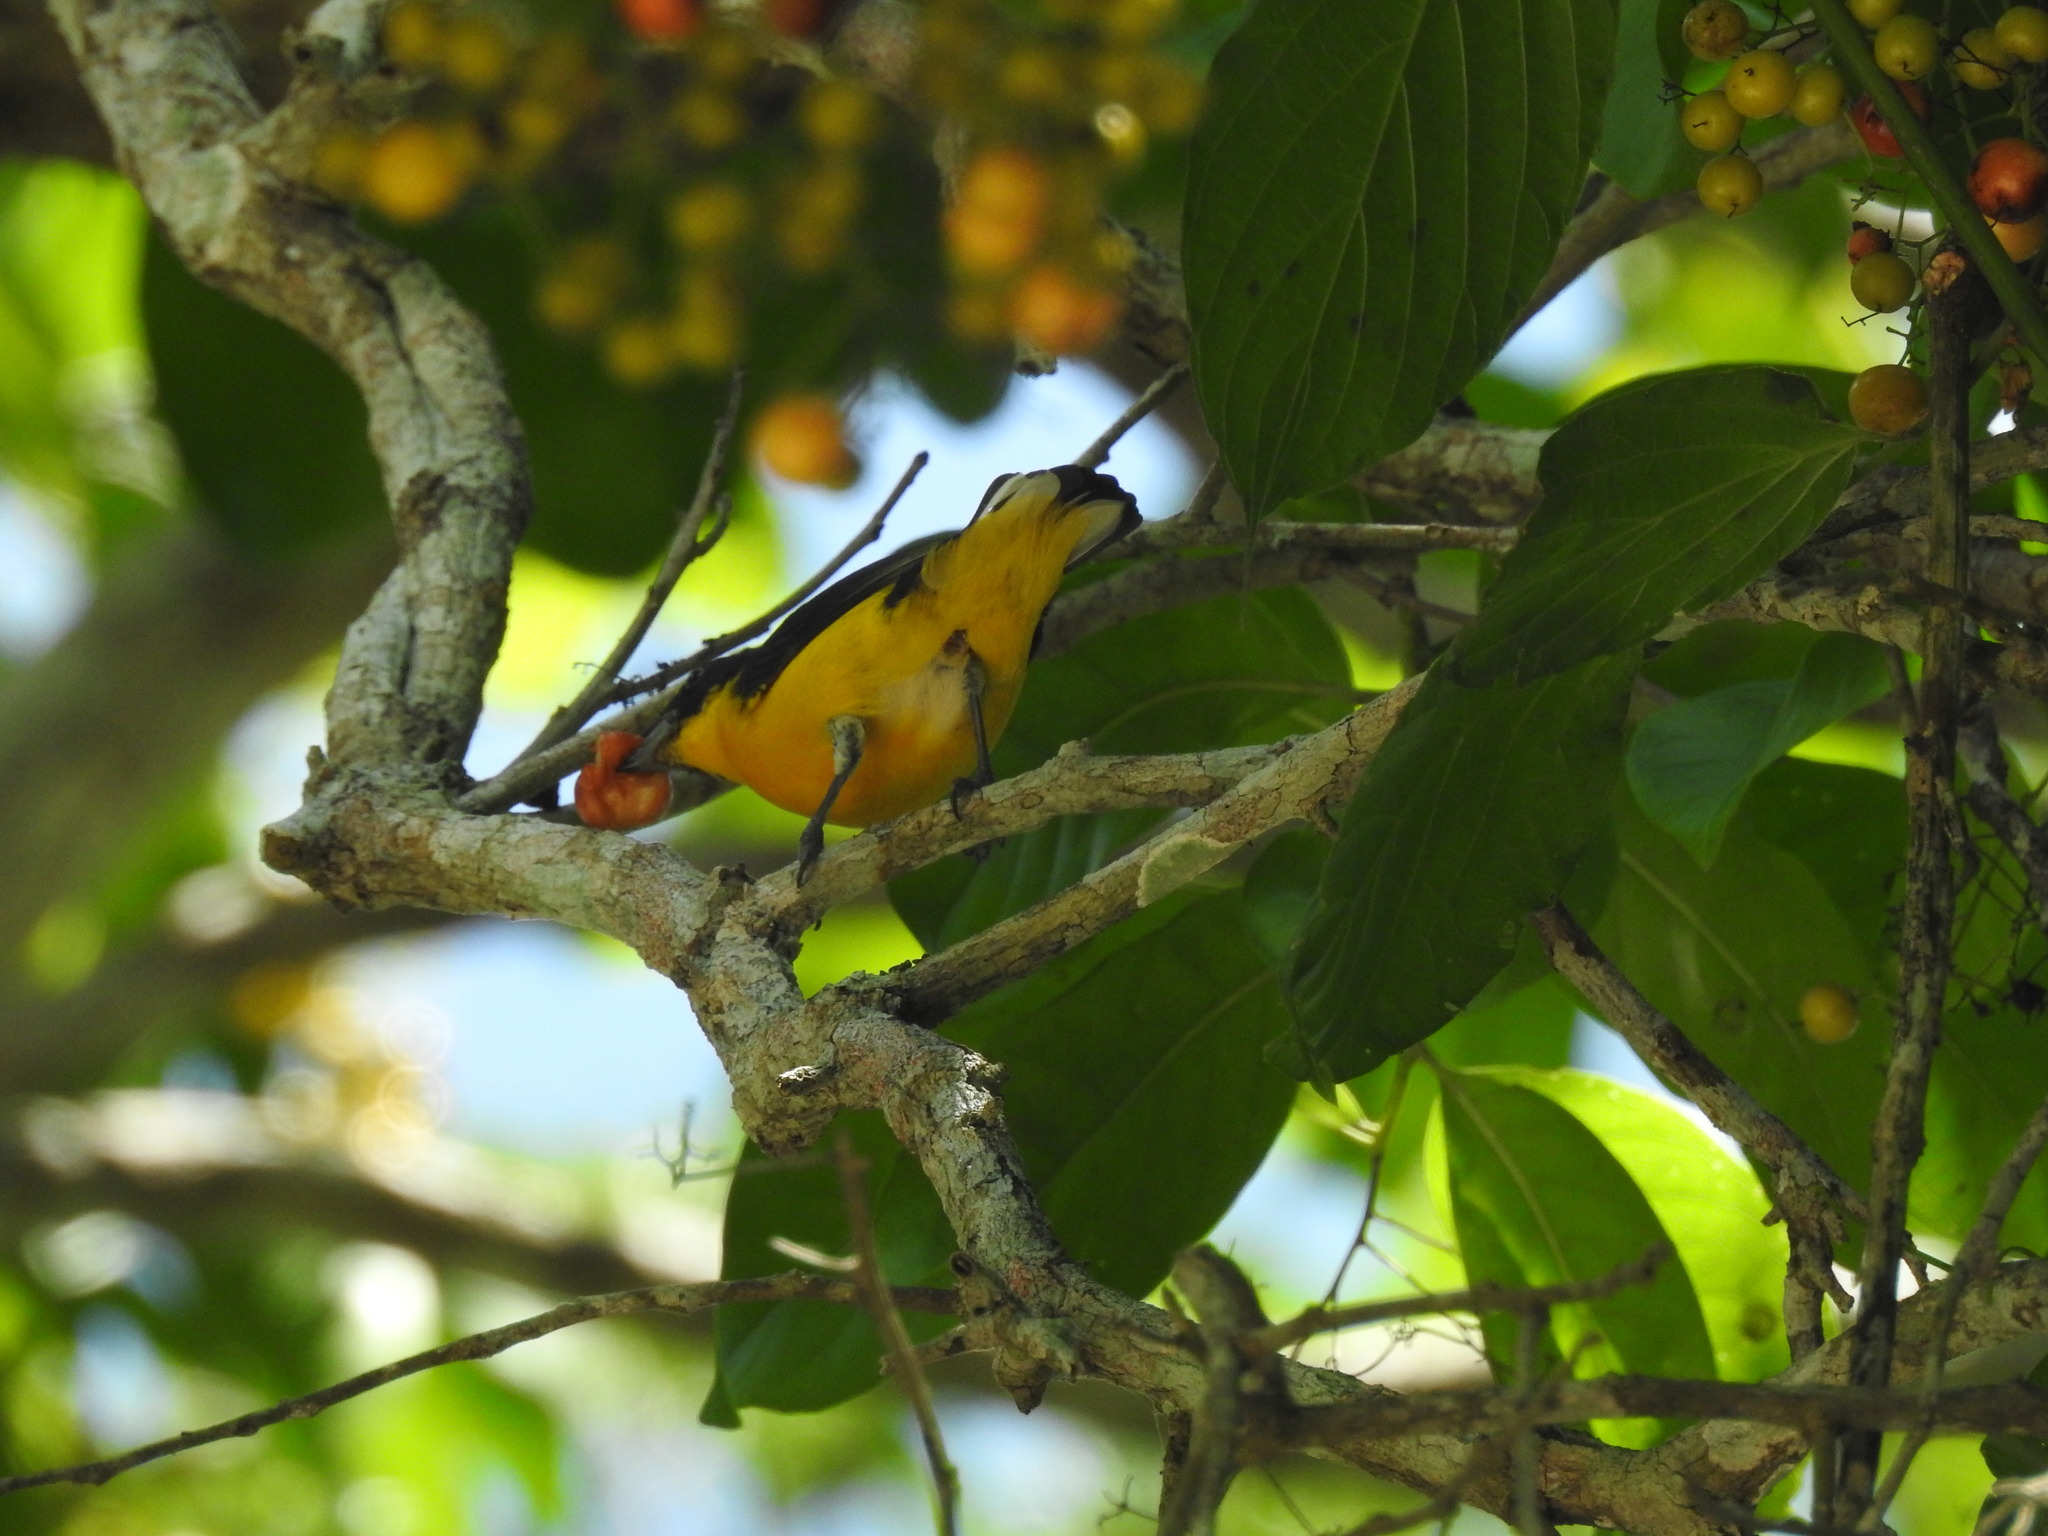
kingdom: Animalia
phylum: Chordata
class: Aves
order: Passeriformes
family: Fringillidae
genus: Euphonia
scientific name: Euphonia hirundinacea
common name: Yellow-throated euphonia
